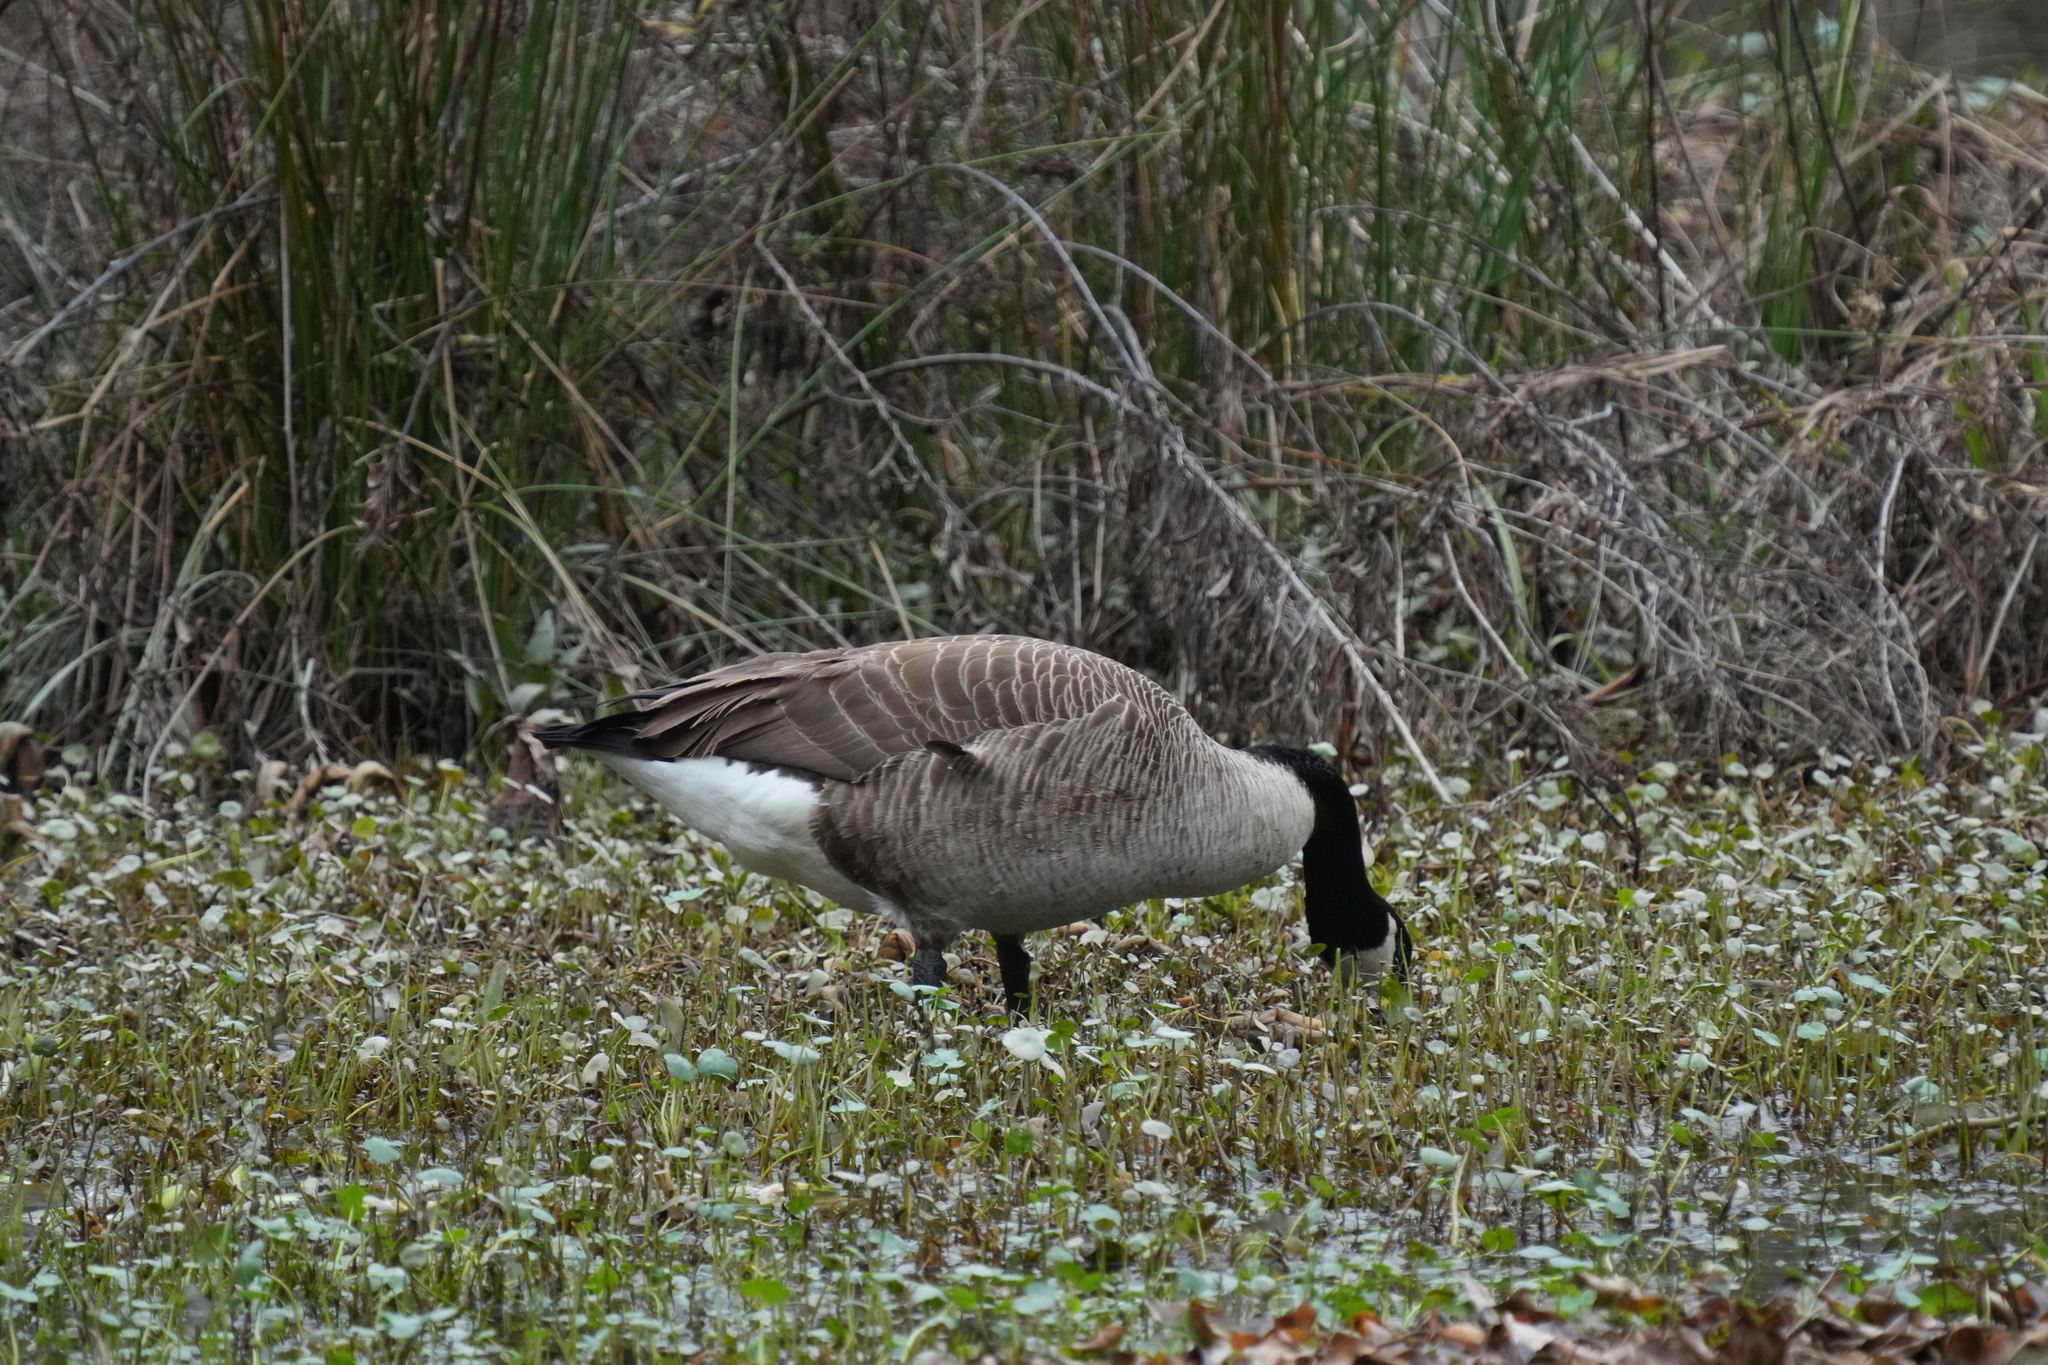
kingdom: Animalia
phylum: Chordata
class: Aves
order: Anseriformes
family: Anatidae
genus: Branta
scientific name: Branta canadensis
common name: Canada goose
